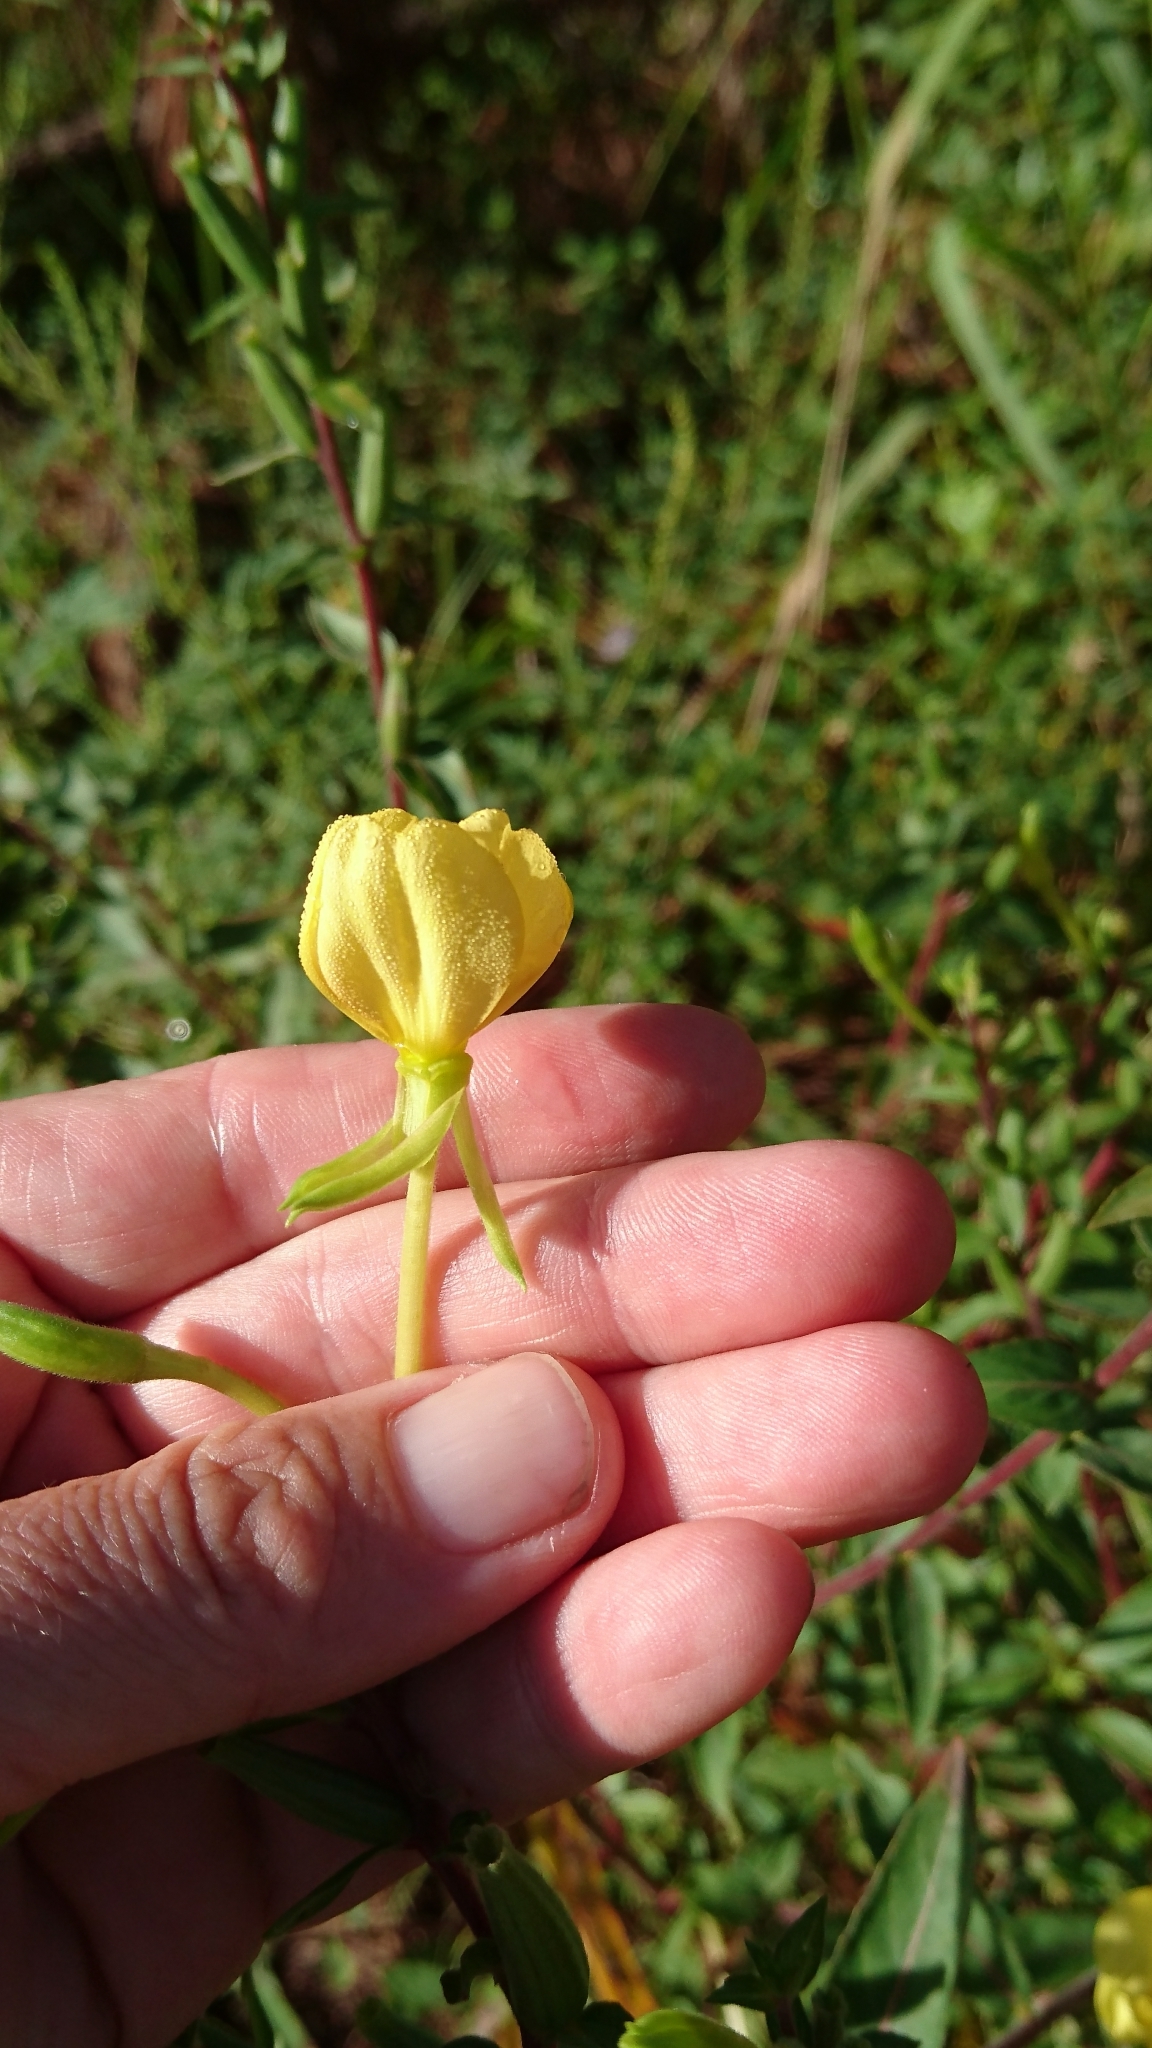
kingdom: Plantae
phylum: Tracheophyta
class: Magnoliopsida
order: Myrtales
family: Onagraceae
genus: Oenothera
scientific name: Oenothera biennis
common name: Common evening-primrose
